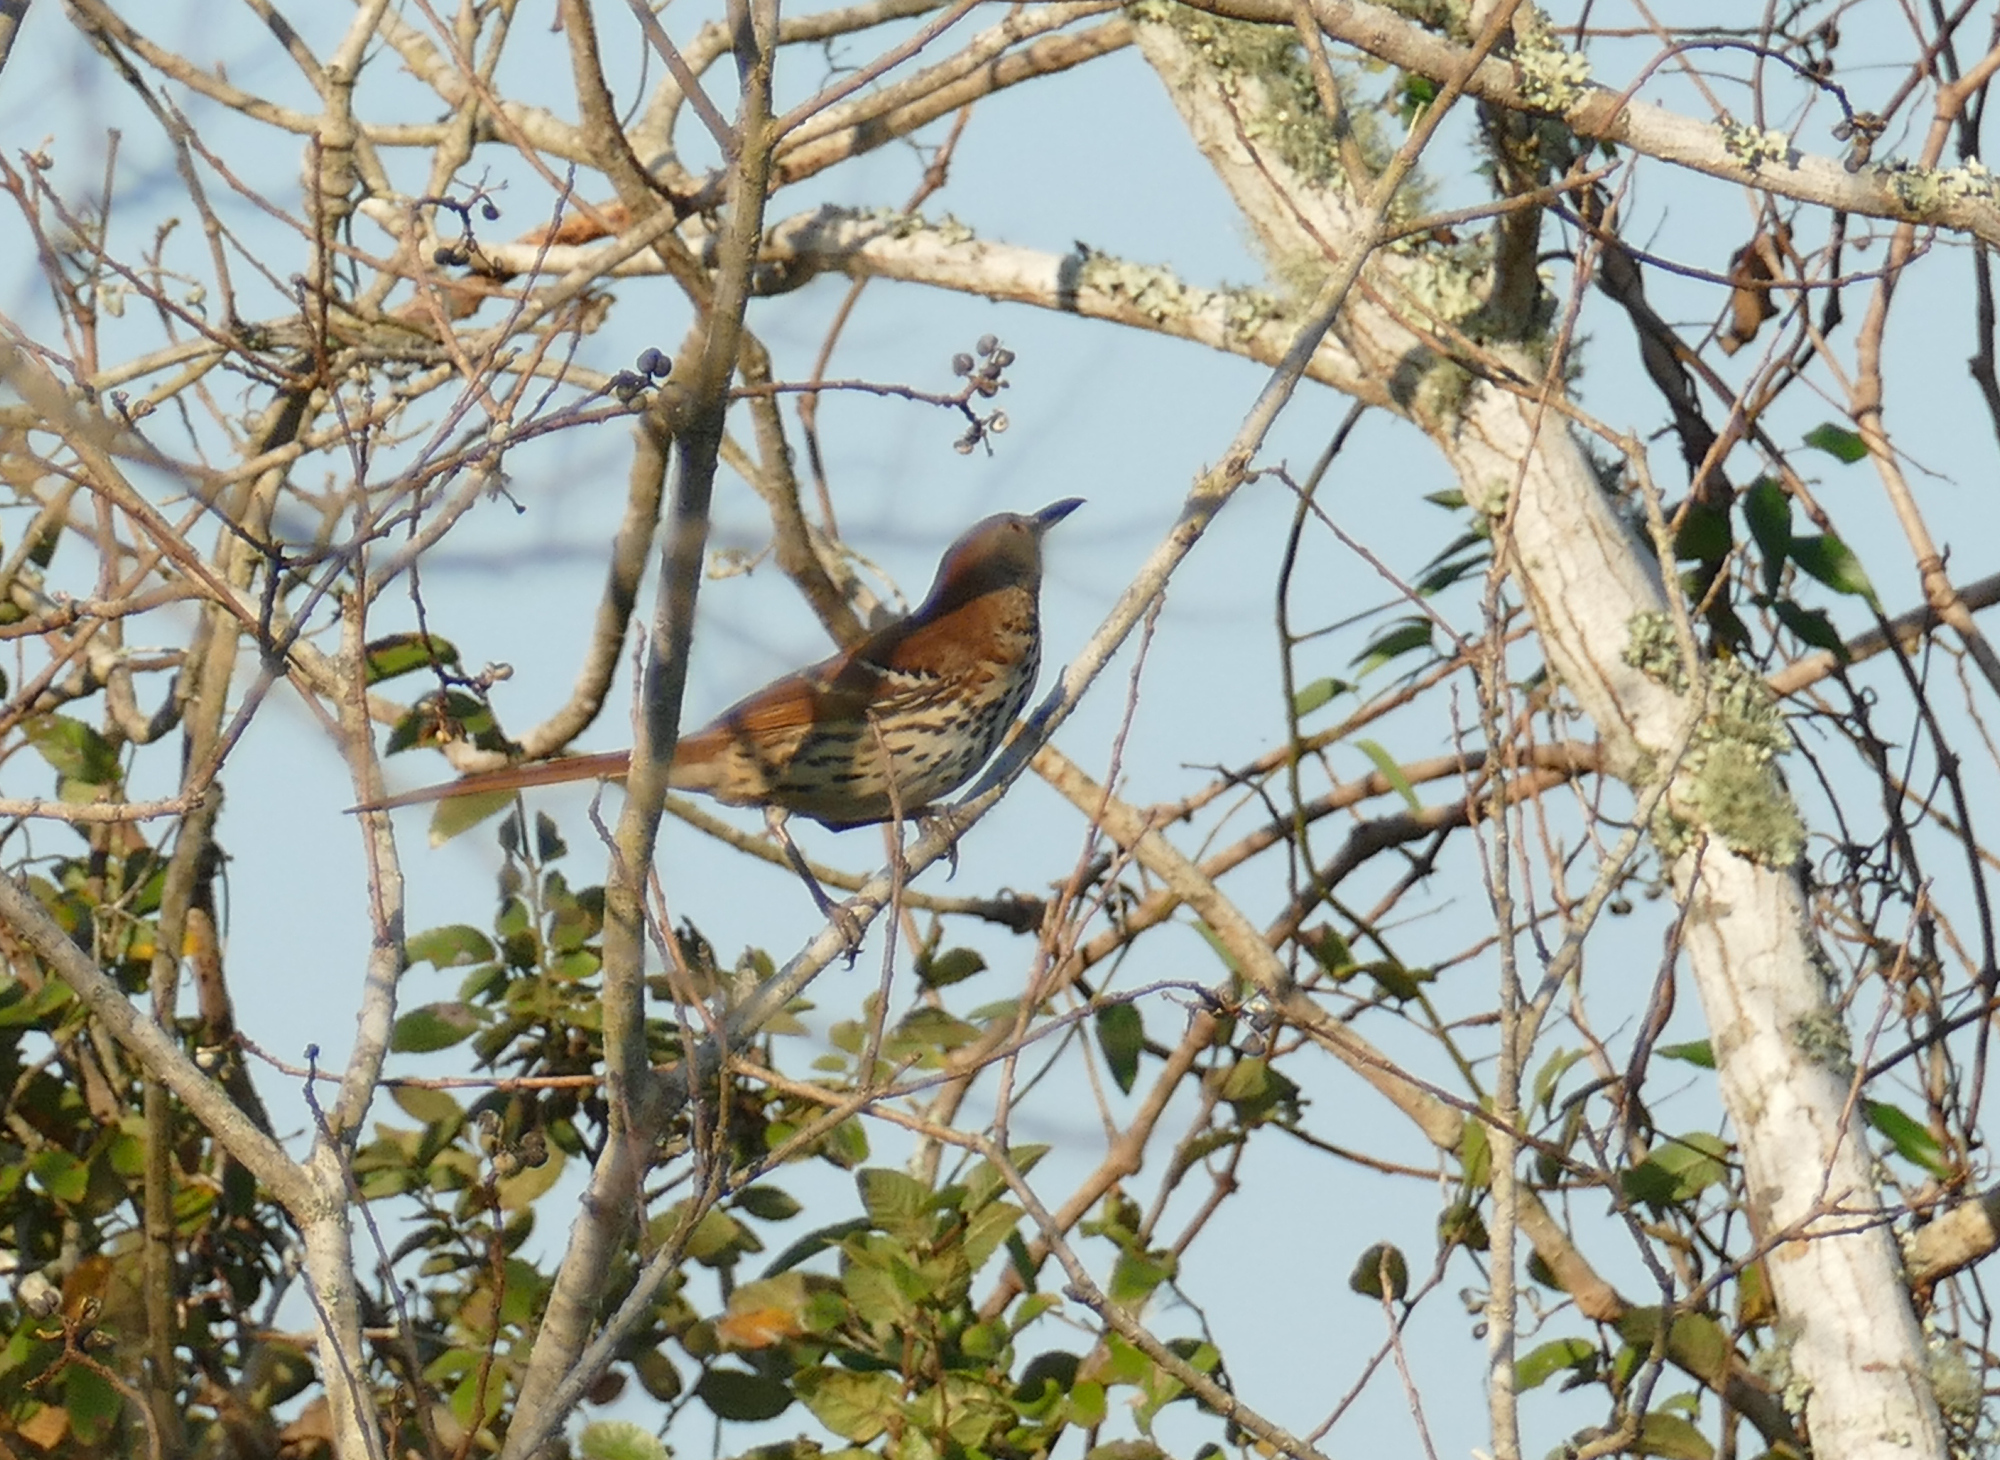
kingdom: Animalia
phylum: Chordata
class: Aves
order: Passeriformes
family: Mimidae
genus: Toxostoma
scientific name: Toxostoma rufum
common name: Brown thrasher
